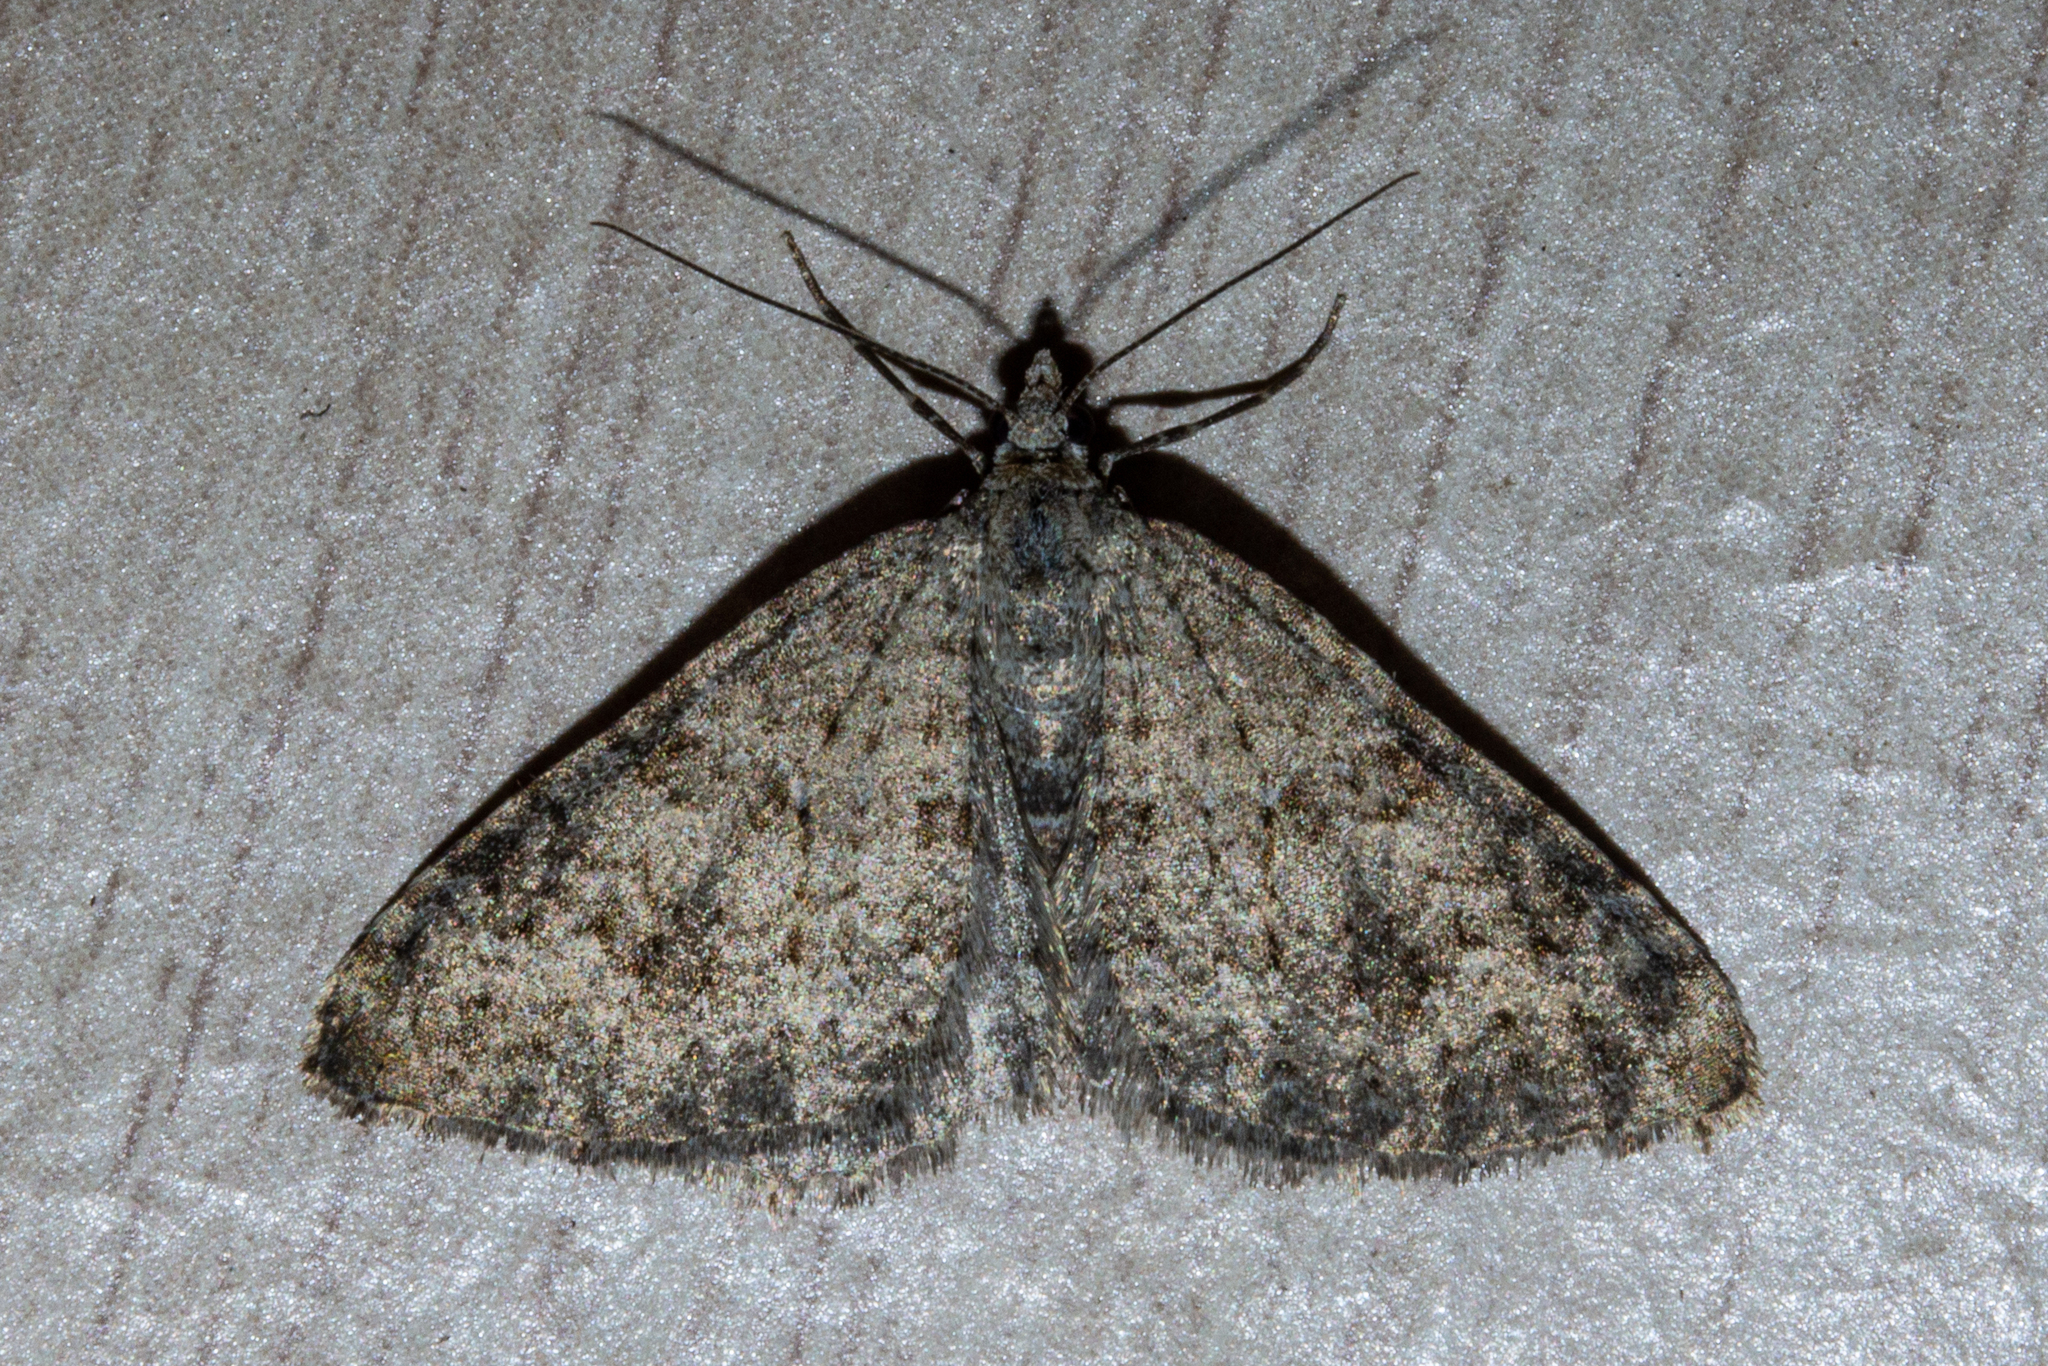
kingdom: Animalia
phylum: Arthropoda
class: Insecta
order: Lepidoptera
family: Geometridae
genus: Helastia
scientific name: Helastia corcularia
